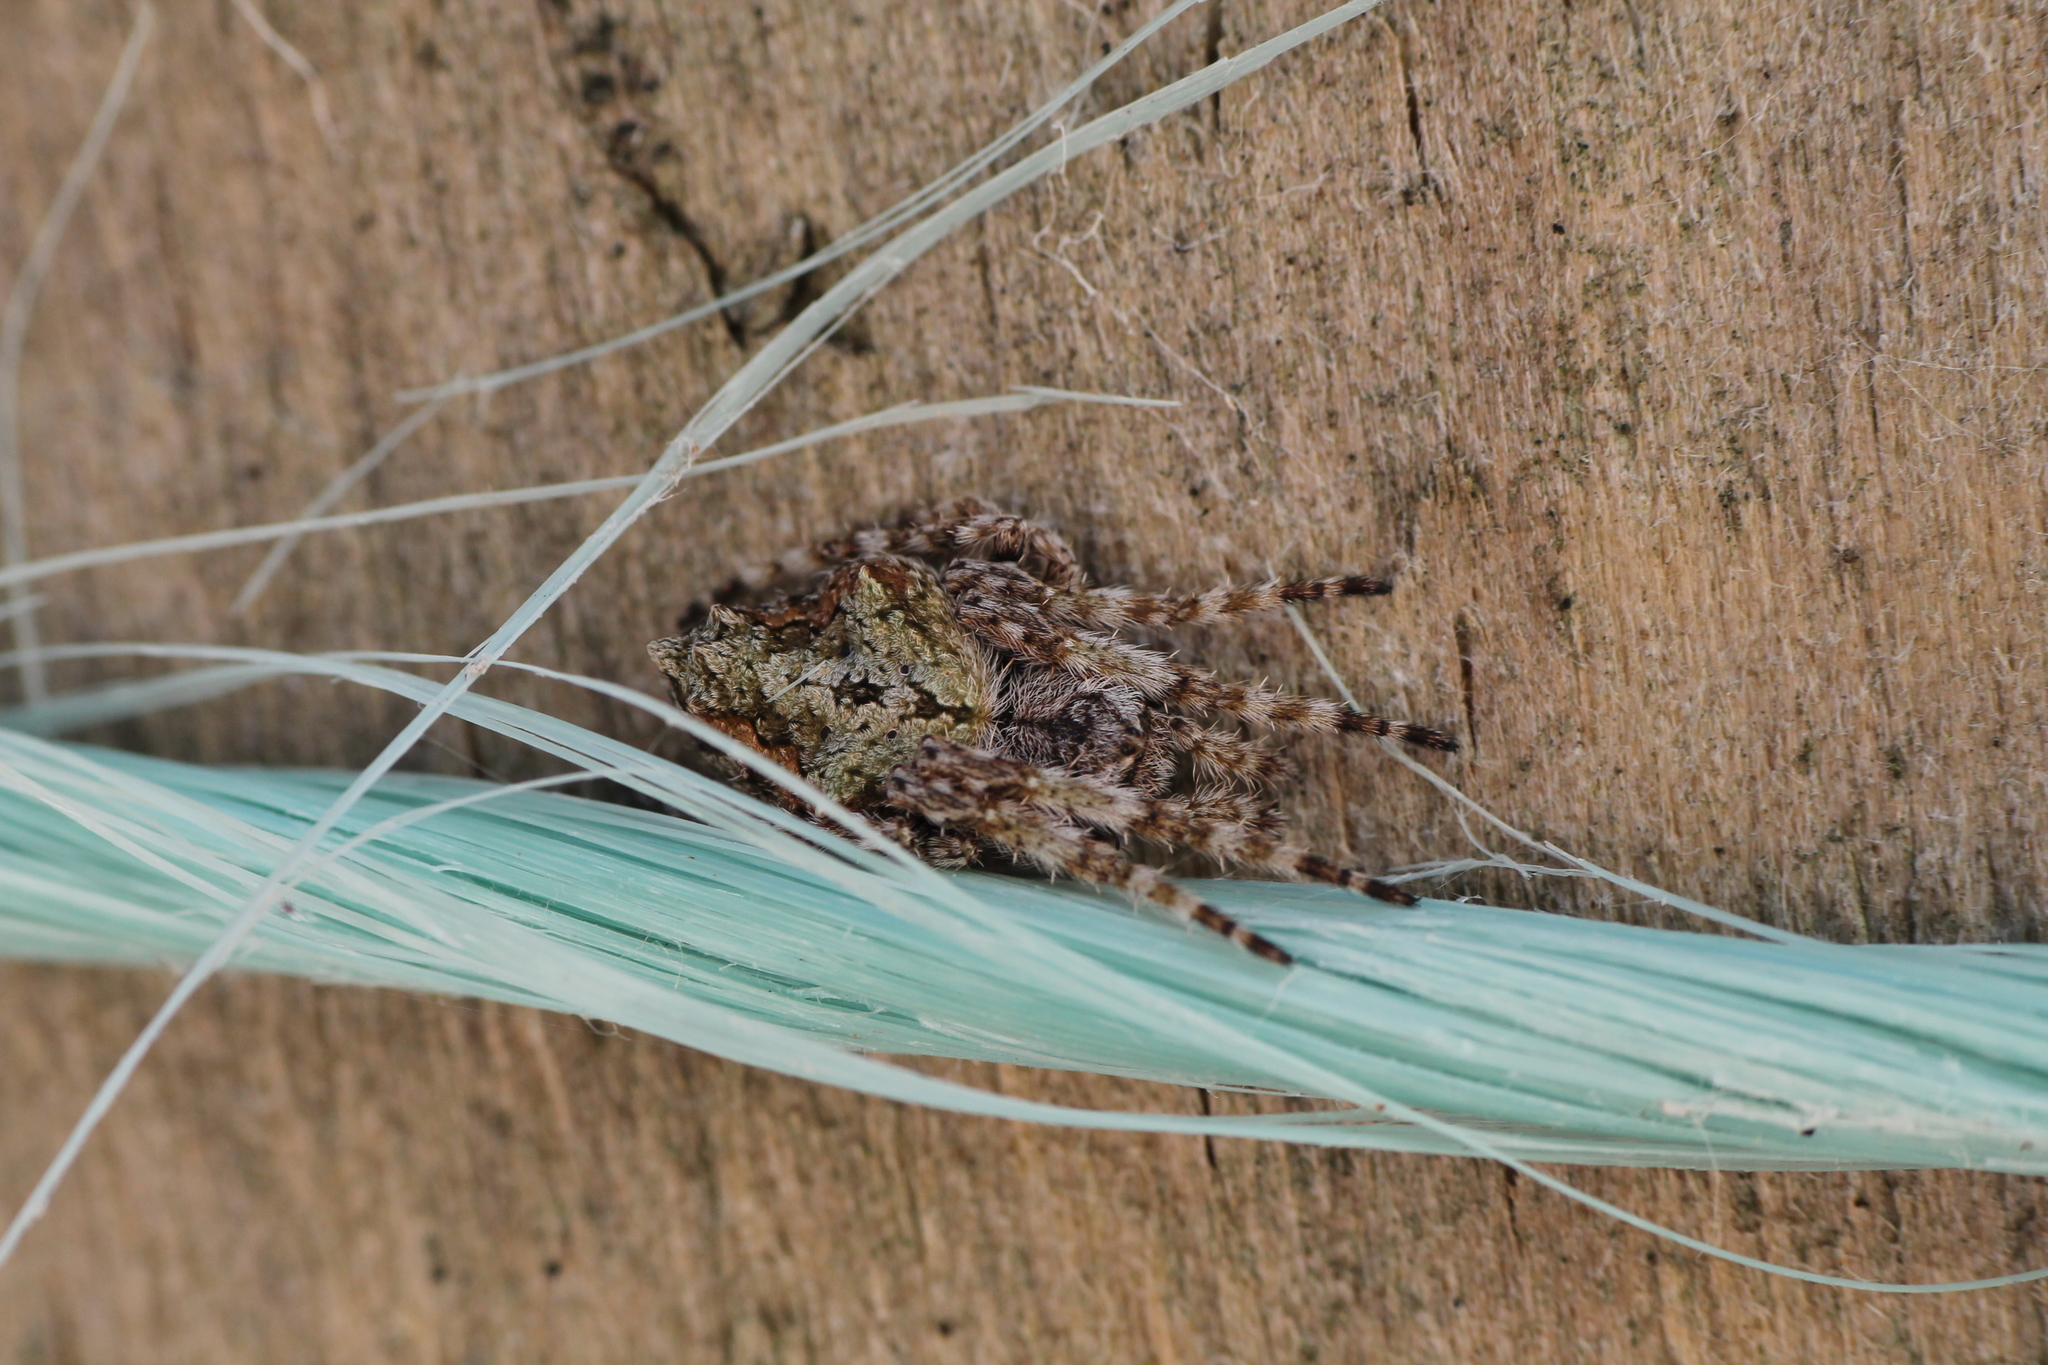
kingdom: Animalia
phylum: Arthropoda
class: Arachnida
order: Araneae
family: Araneidae
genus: Eriophora
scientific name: Eriophora pustulosa
